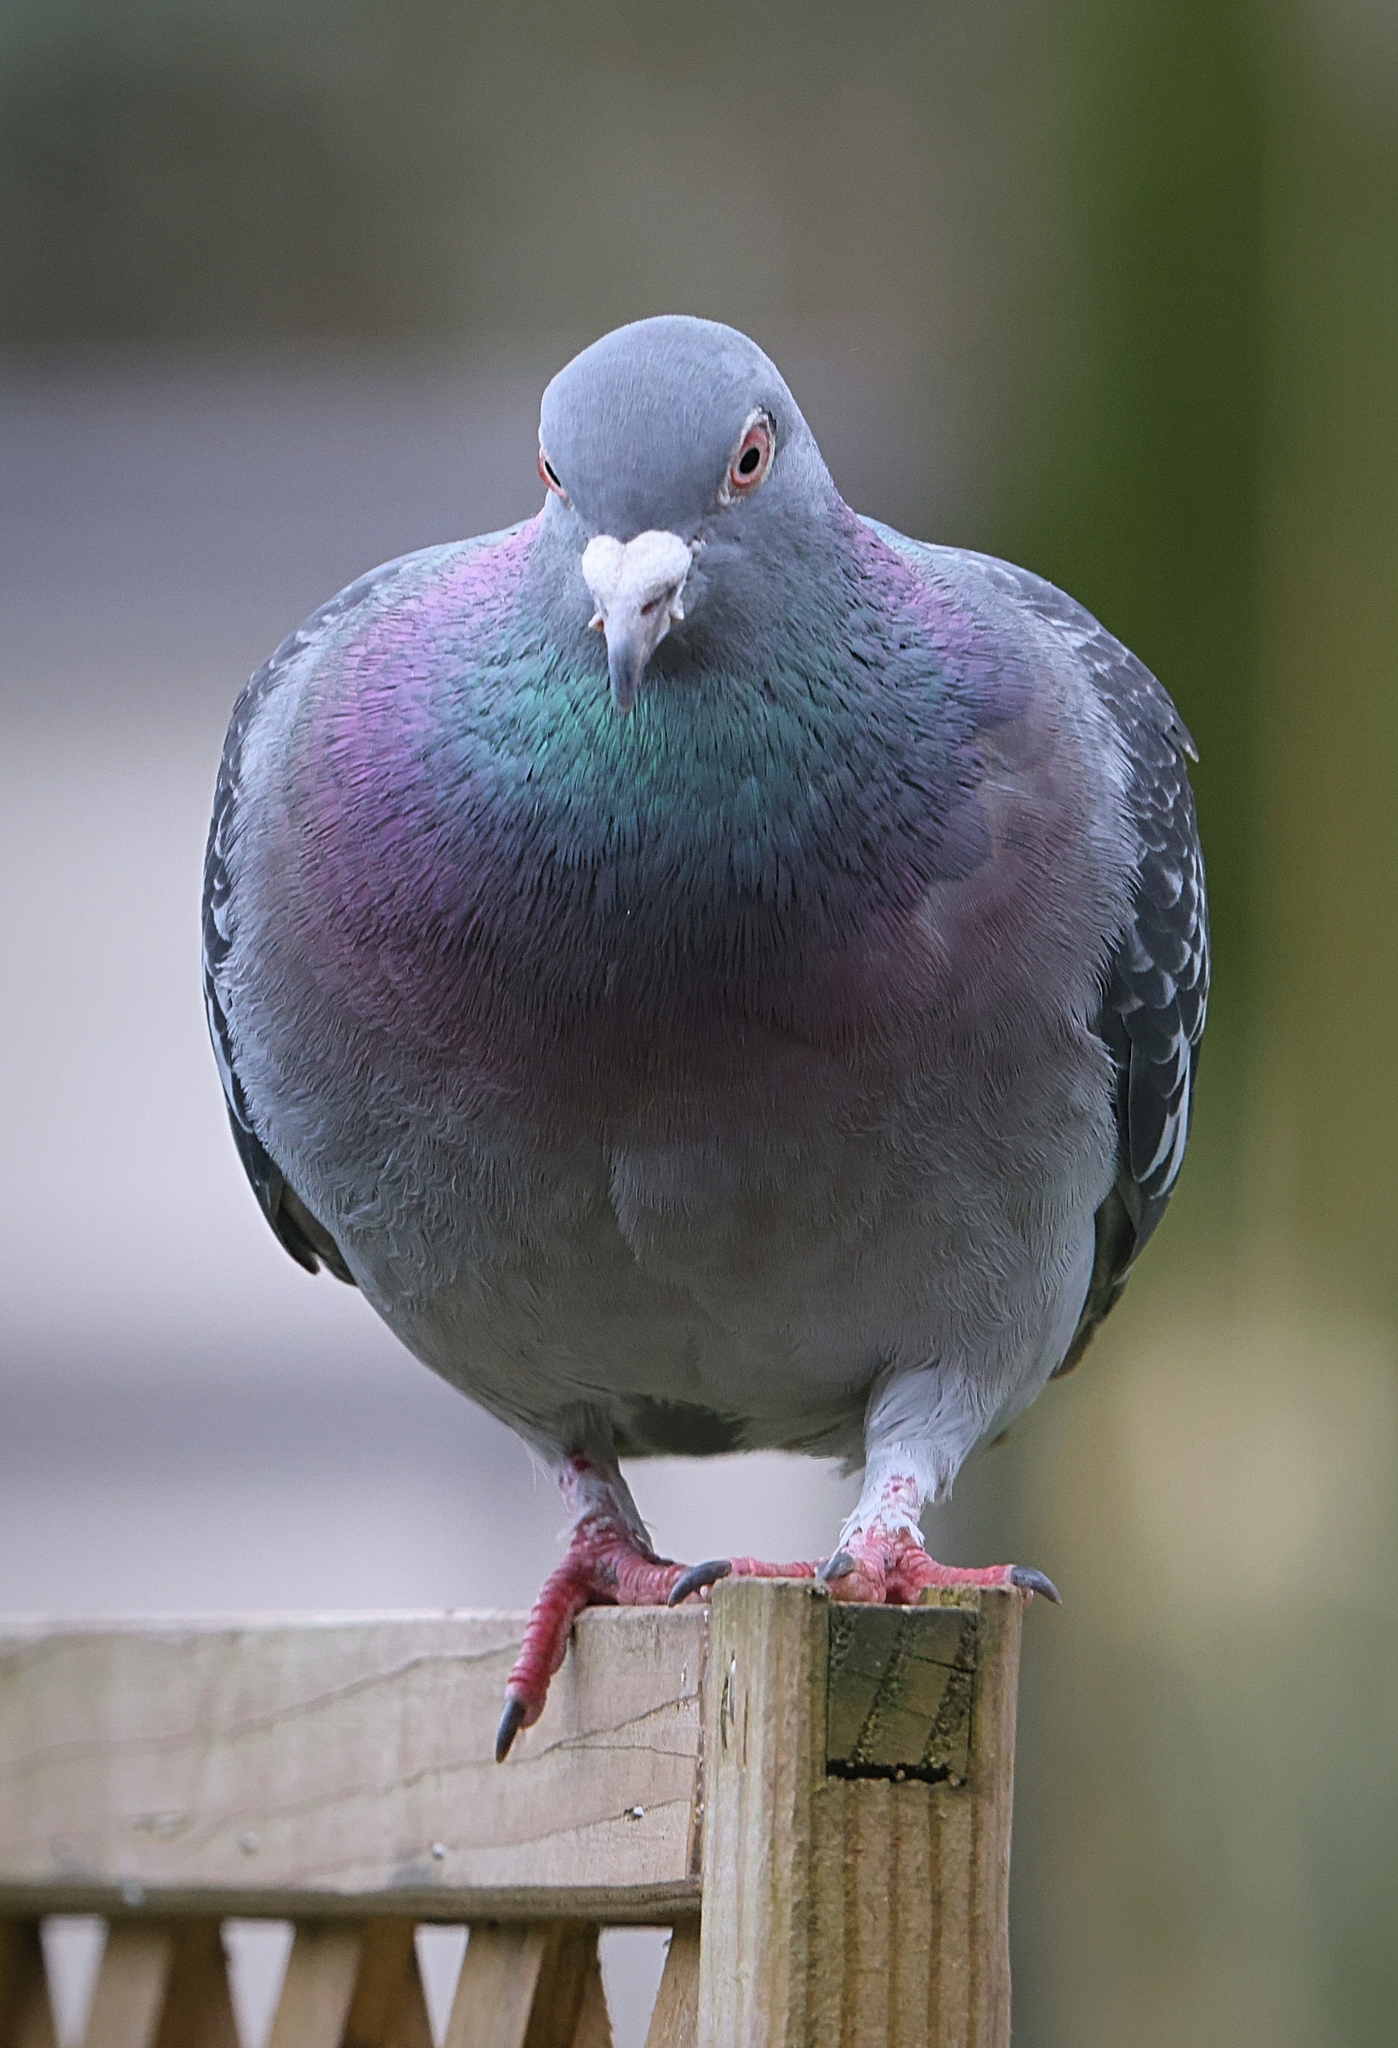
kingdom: Animalia
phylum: Chordata
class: Aves
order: Columbiformes
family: Columbidae
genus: Columba
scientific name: Columba livia
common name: Rock pigeon
